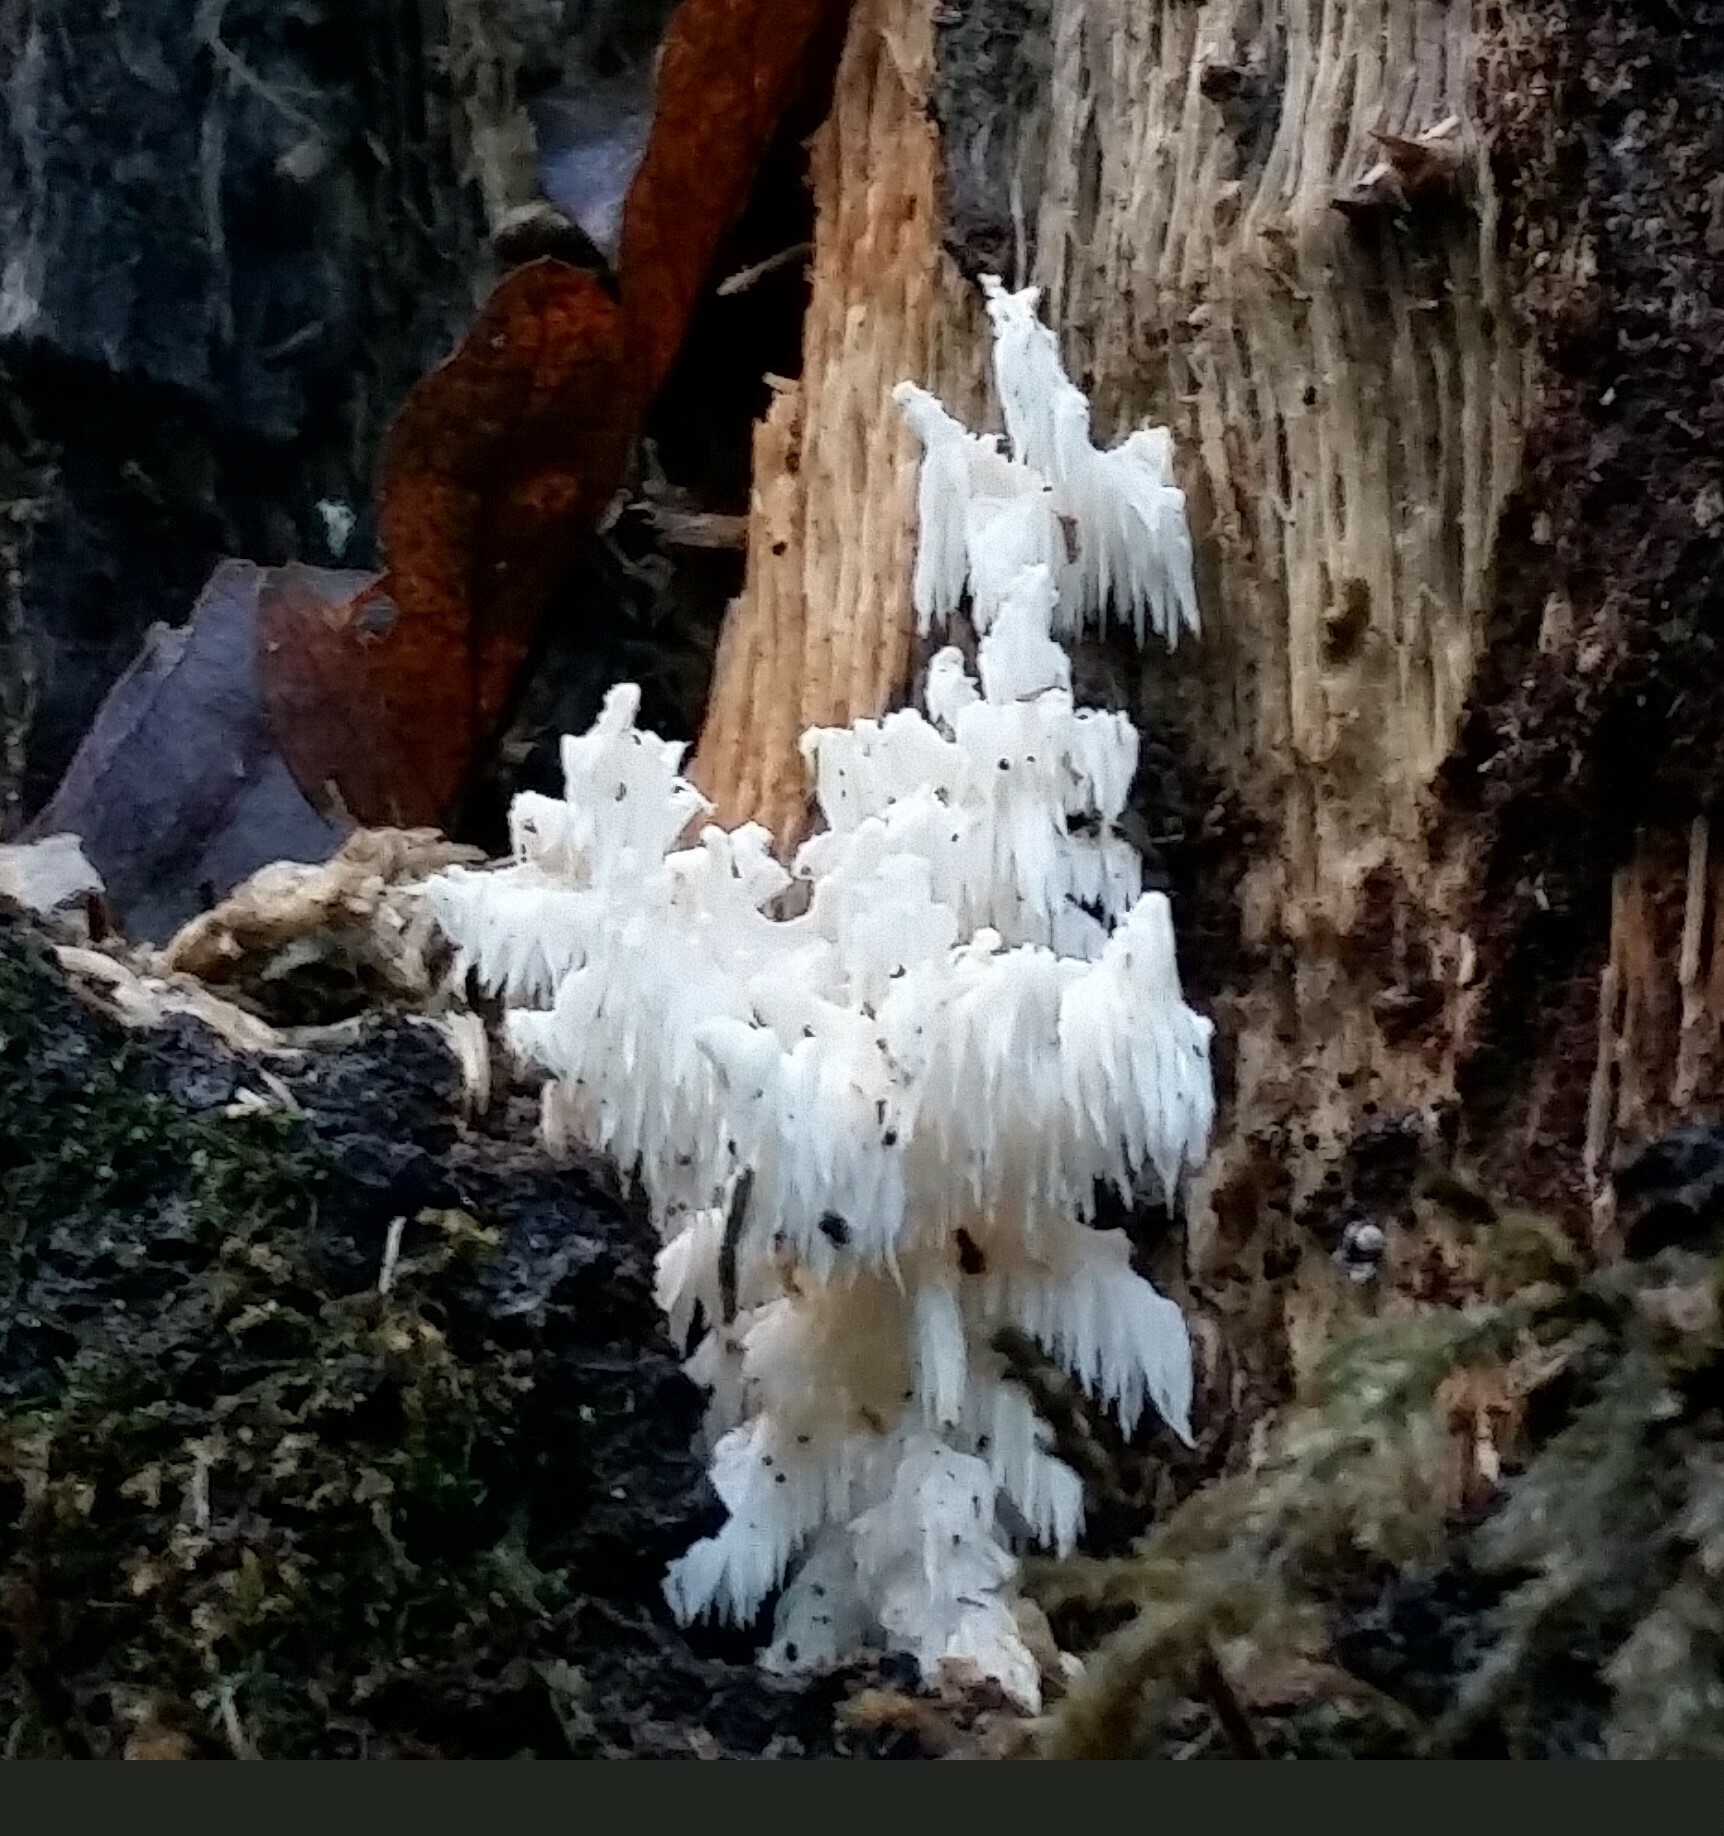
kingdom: Fungi
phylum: Basidiomycota
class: Agaricomycetes
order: Russulales
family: Hericiaceae
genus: Hericium
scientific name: Hericium coralloides
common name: Coral tooth
